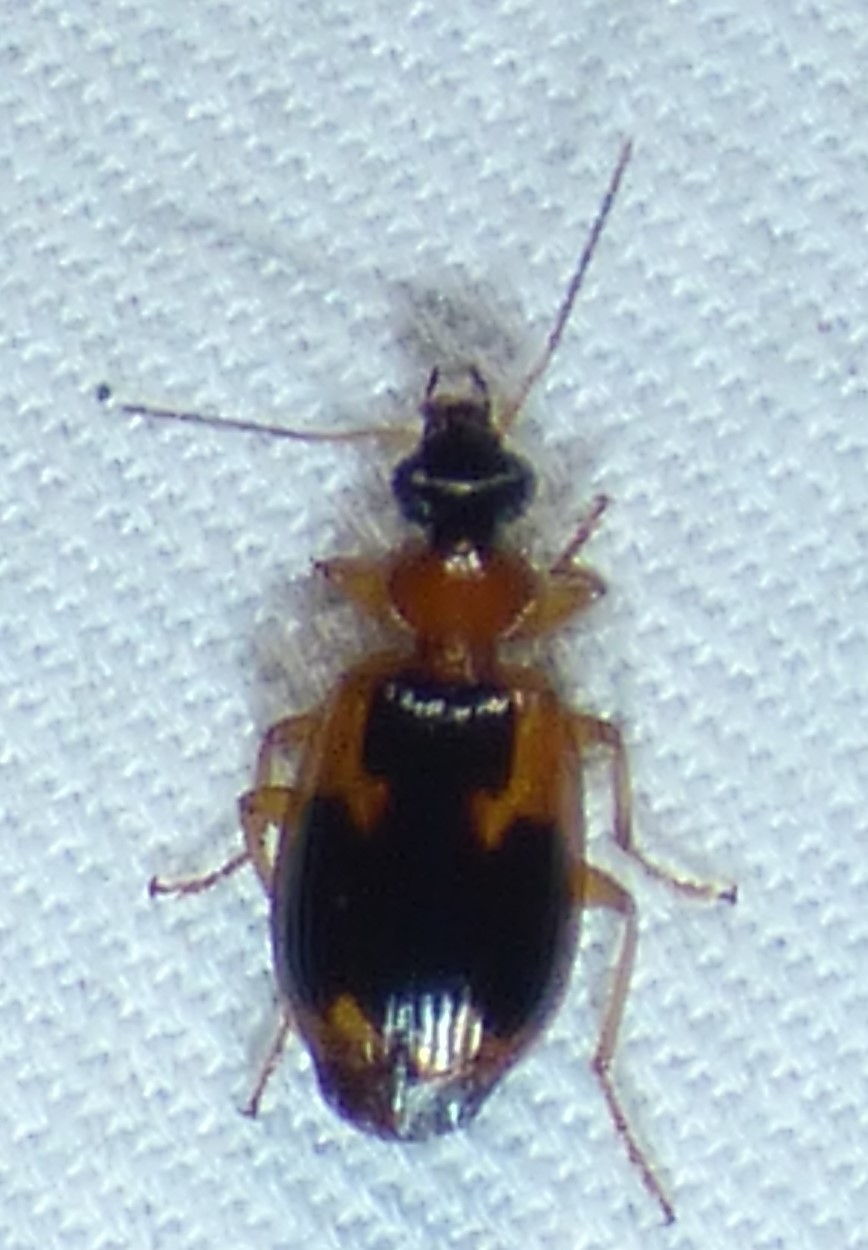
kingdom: Animalia
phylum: Arthropoda
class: Insecta
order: Coleoptera
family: Carabidae
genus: Lebia
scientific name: Lebia analis
